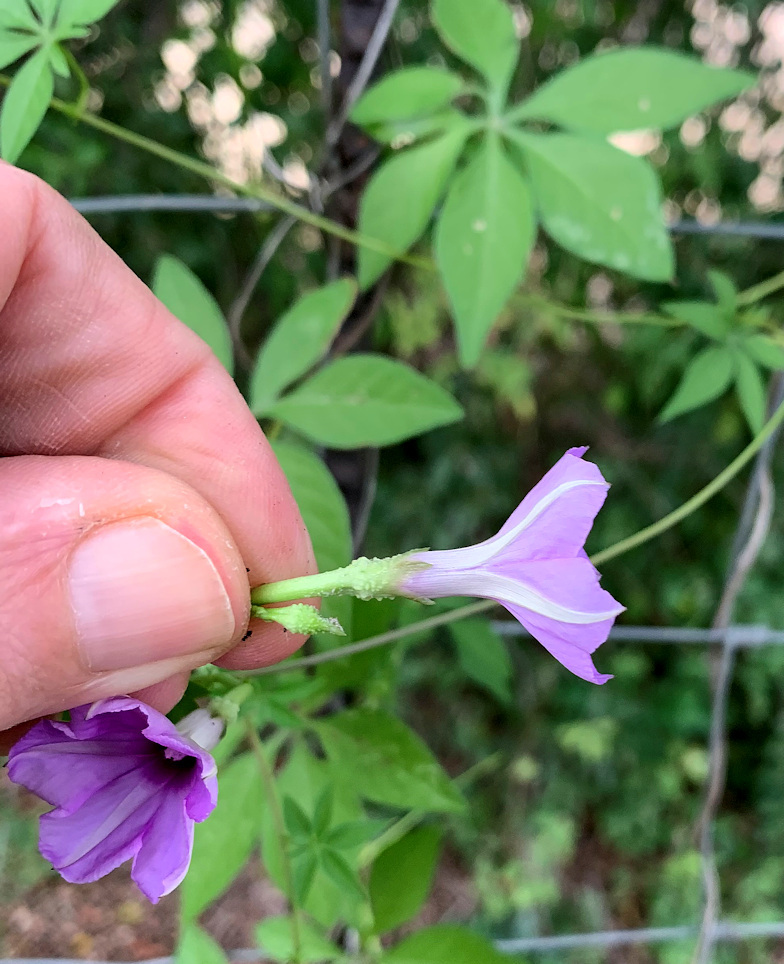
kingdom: Plantae
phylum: Tracheophyta
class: Magnoliopsida
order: Solanales
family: Convolvulaceae
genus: Ipomoea
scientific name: Ipomoea cairica
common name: Mile a minute vine
